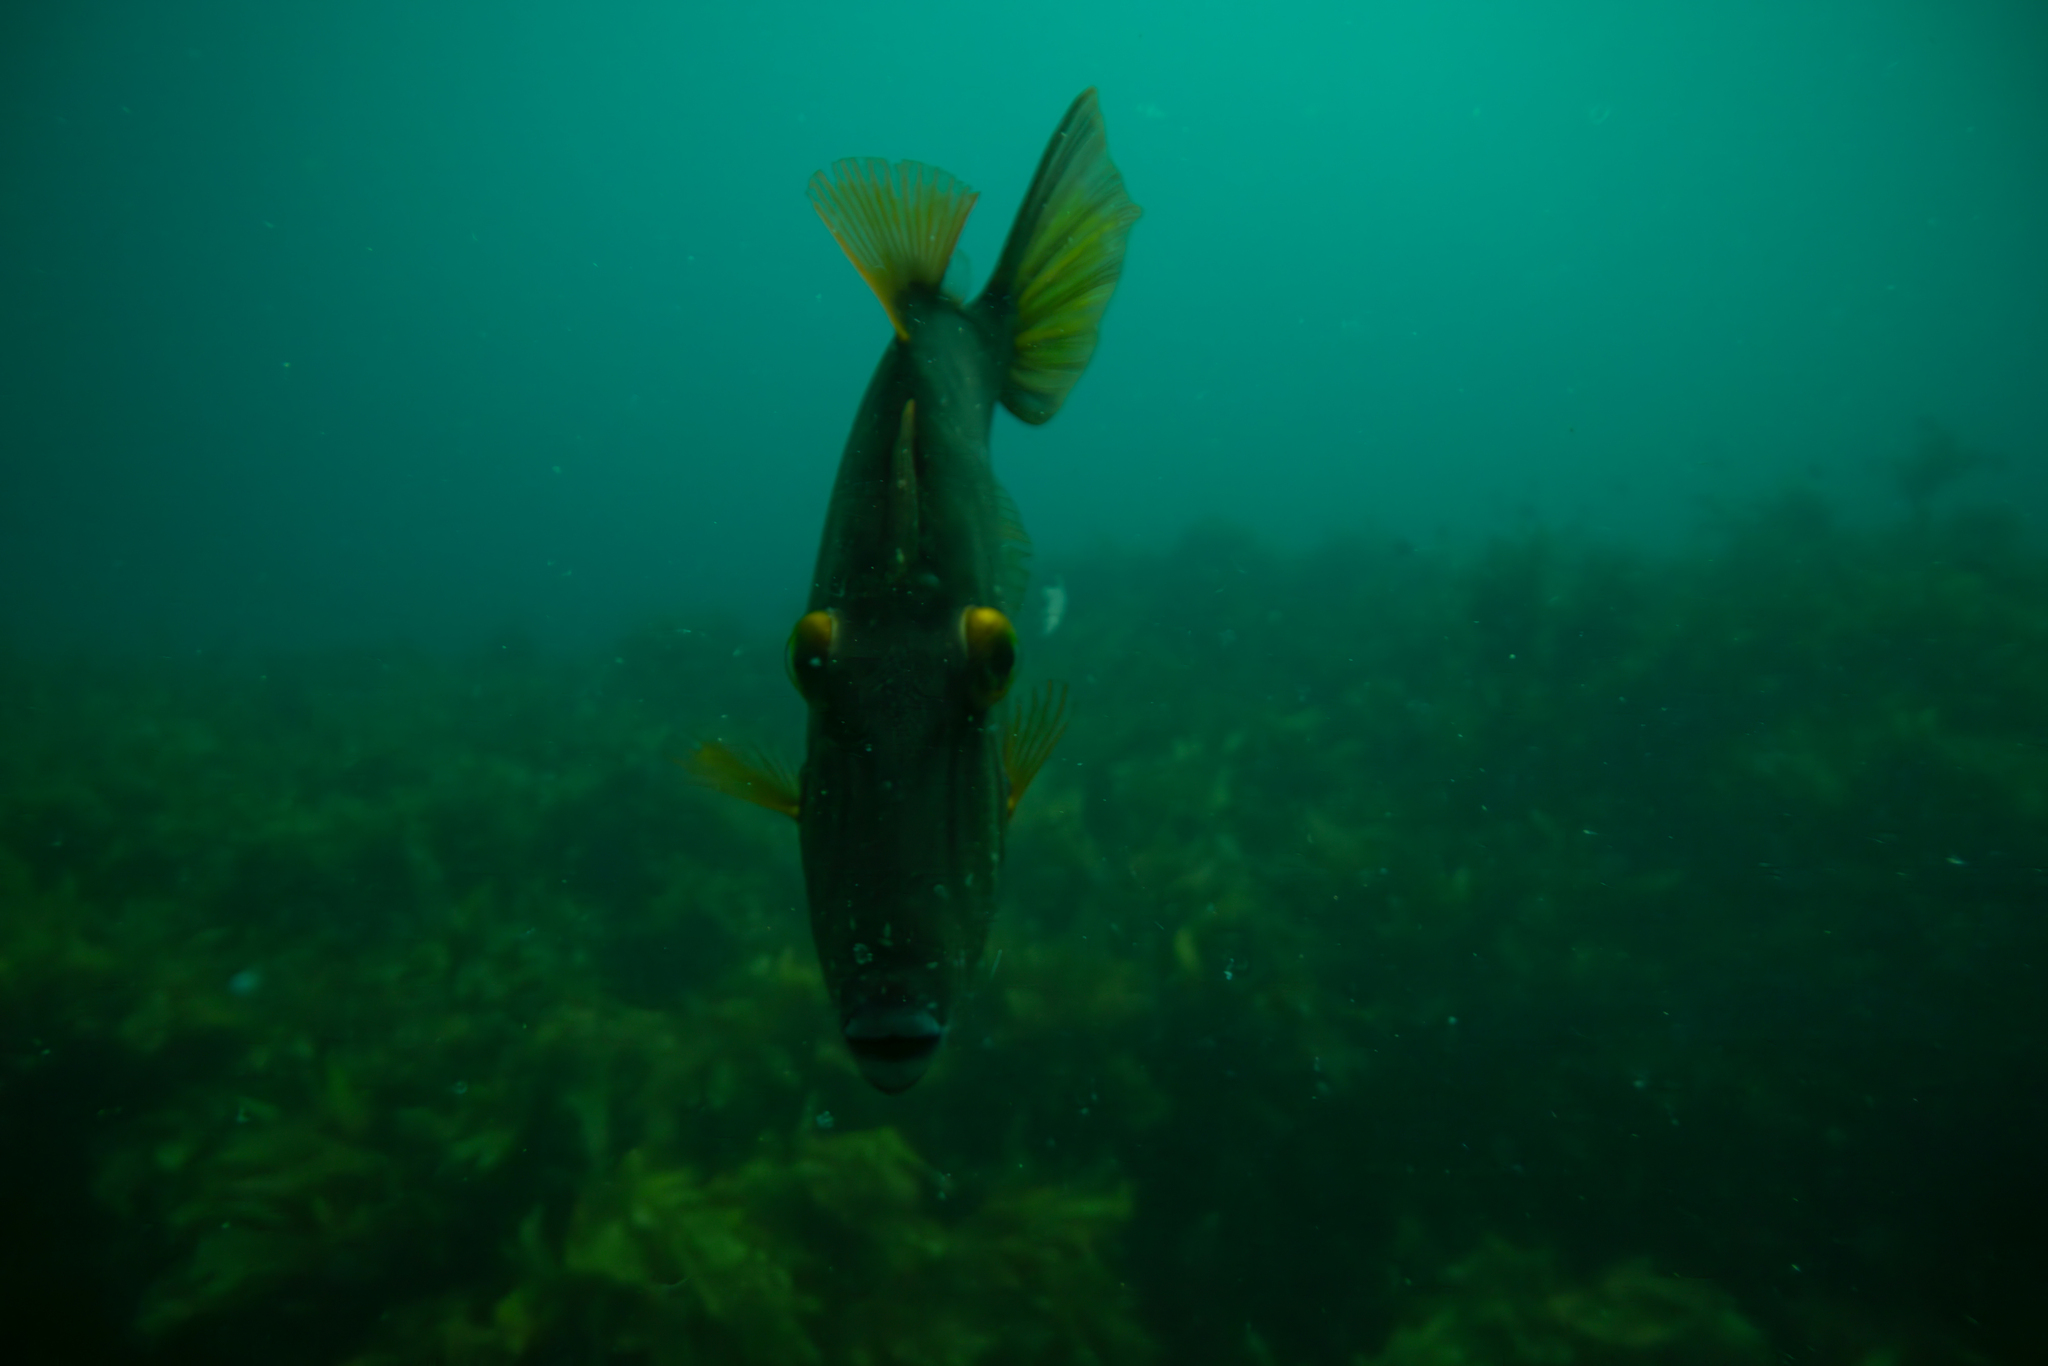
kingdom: Animalia
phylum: Chordata
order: Tetraodontiformes
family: Monacanthidae
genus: Meuschenia
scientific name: Meuschenia scaber
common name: Cosmopolitan leatherjacket
